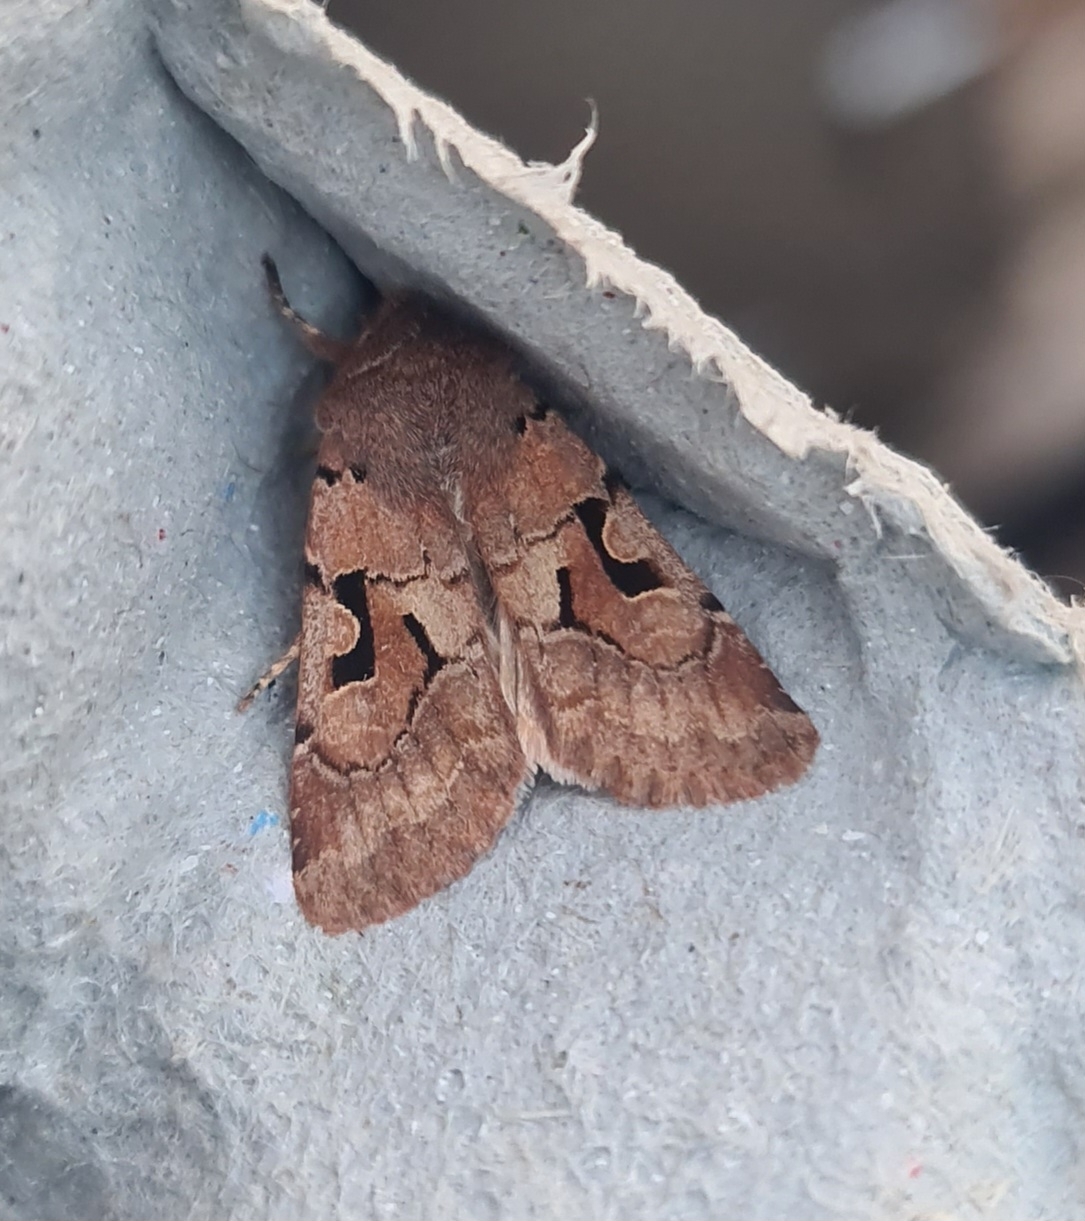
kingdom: Animalia
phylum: Arthropoda
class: Insecta
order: Lepidoptera
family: Noctuidae
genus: Orthosia
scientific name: Orthosia gothica
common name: Hebrew character
